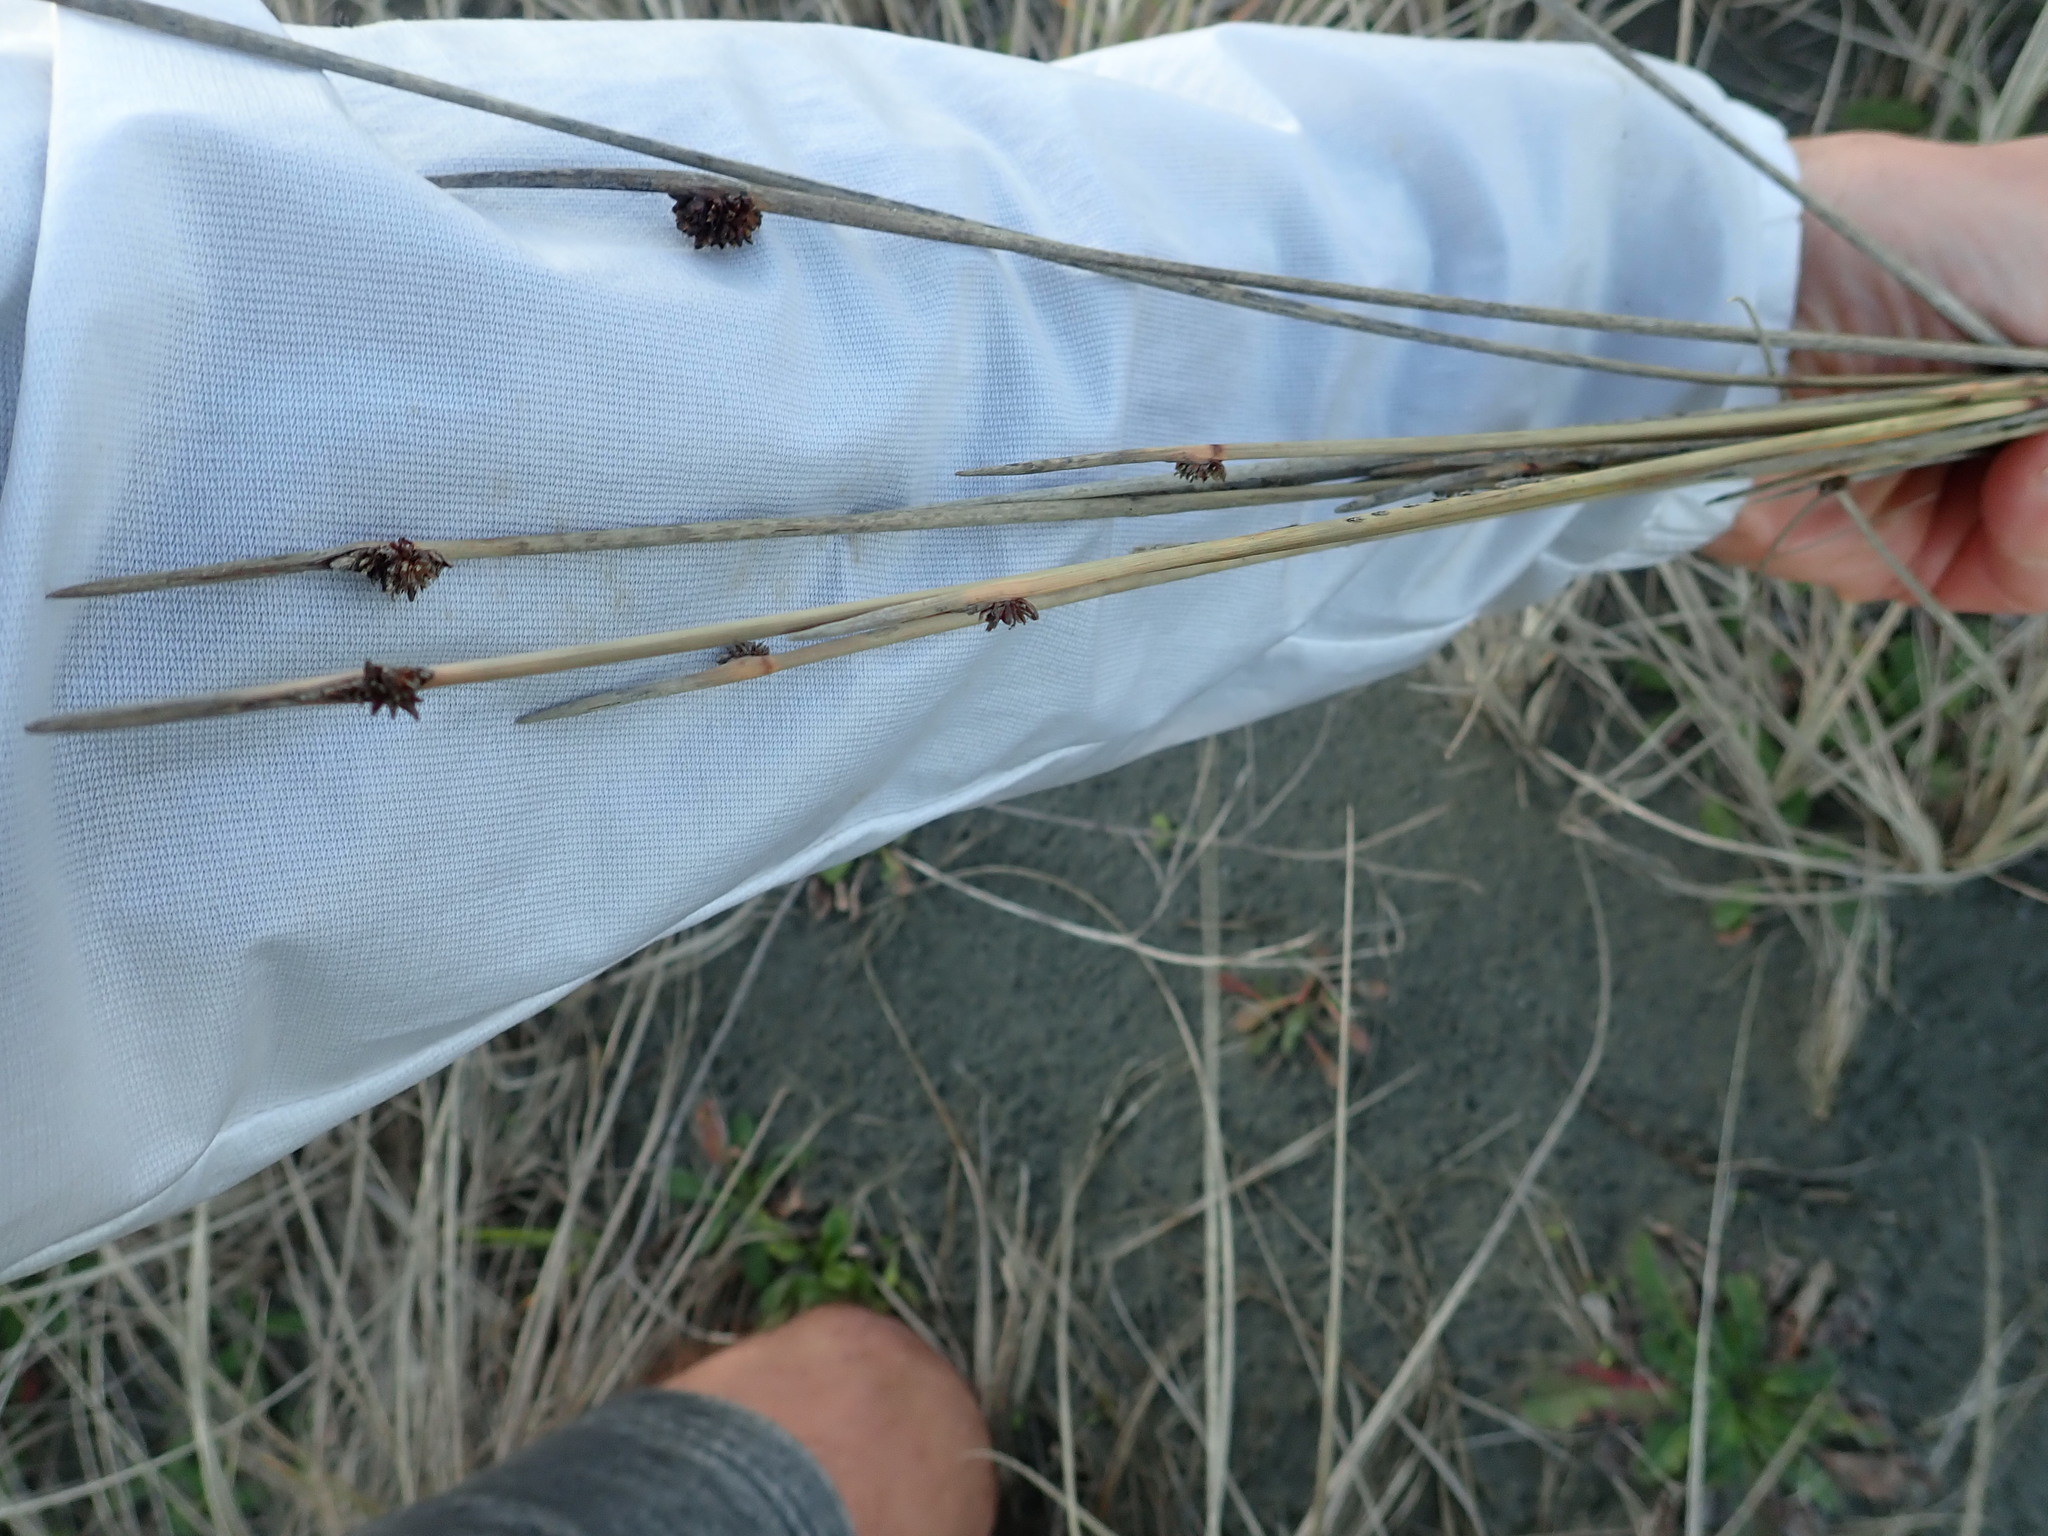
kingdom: Plantae
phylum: Tracheophyta
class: Liliopsida
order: Poales
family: Cyperaceae
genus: Ficinia
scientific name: Ficinia nodosa
